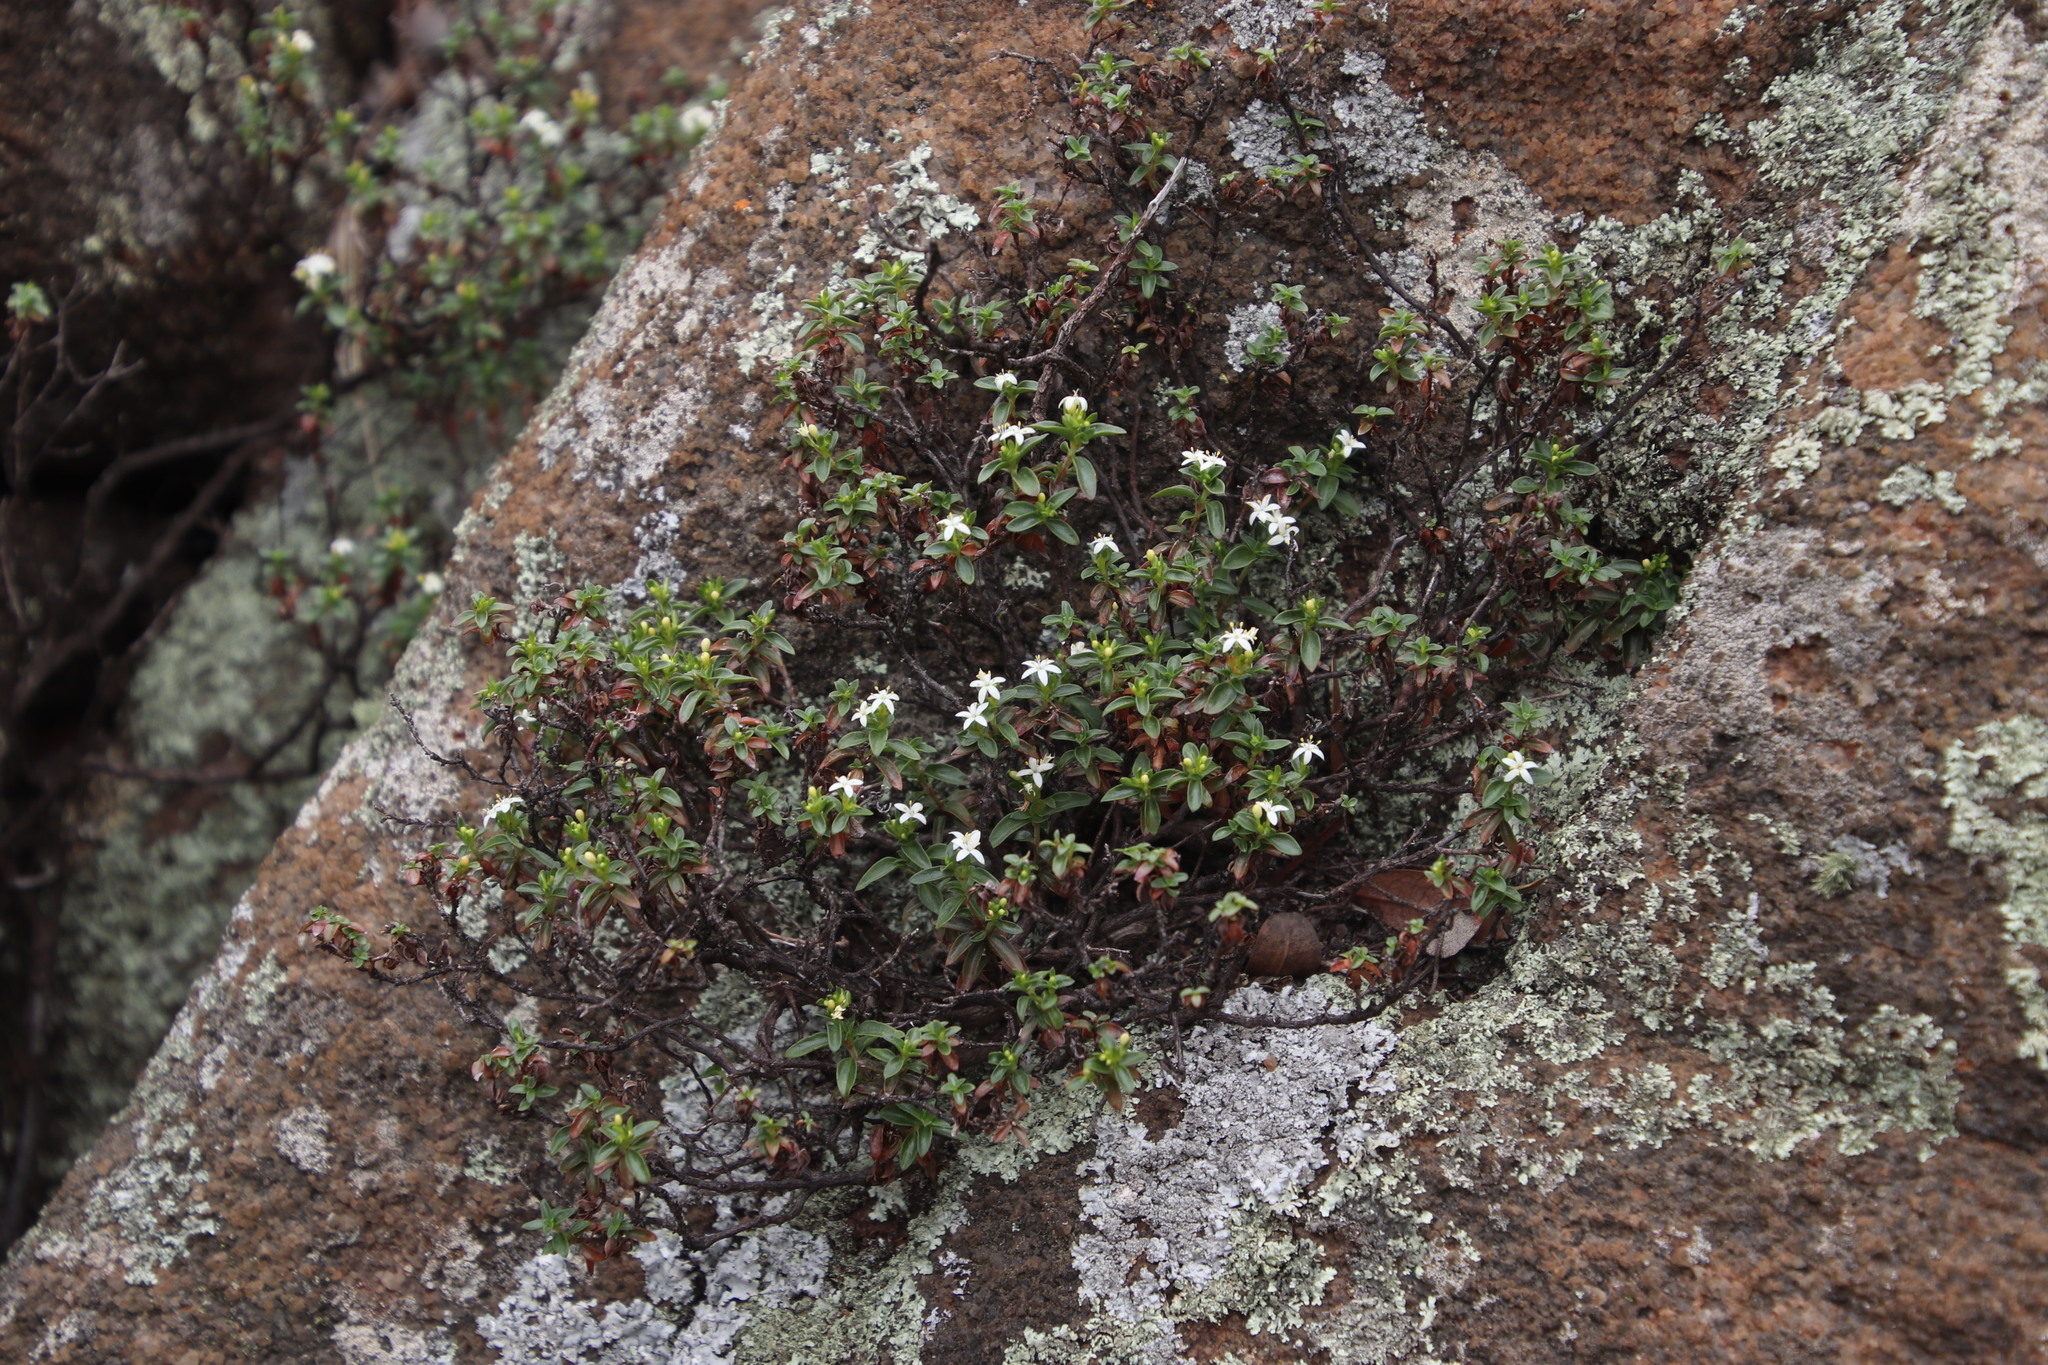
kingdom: Plantae
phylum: Tracheophyta
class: Magnoliopsida
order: Gentianales
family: Rubiaceae
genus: Otiophora
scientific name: Otiophora calycophylla
